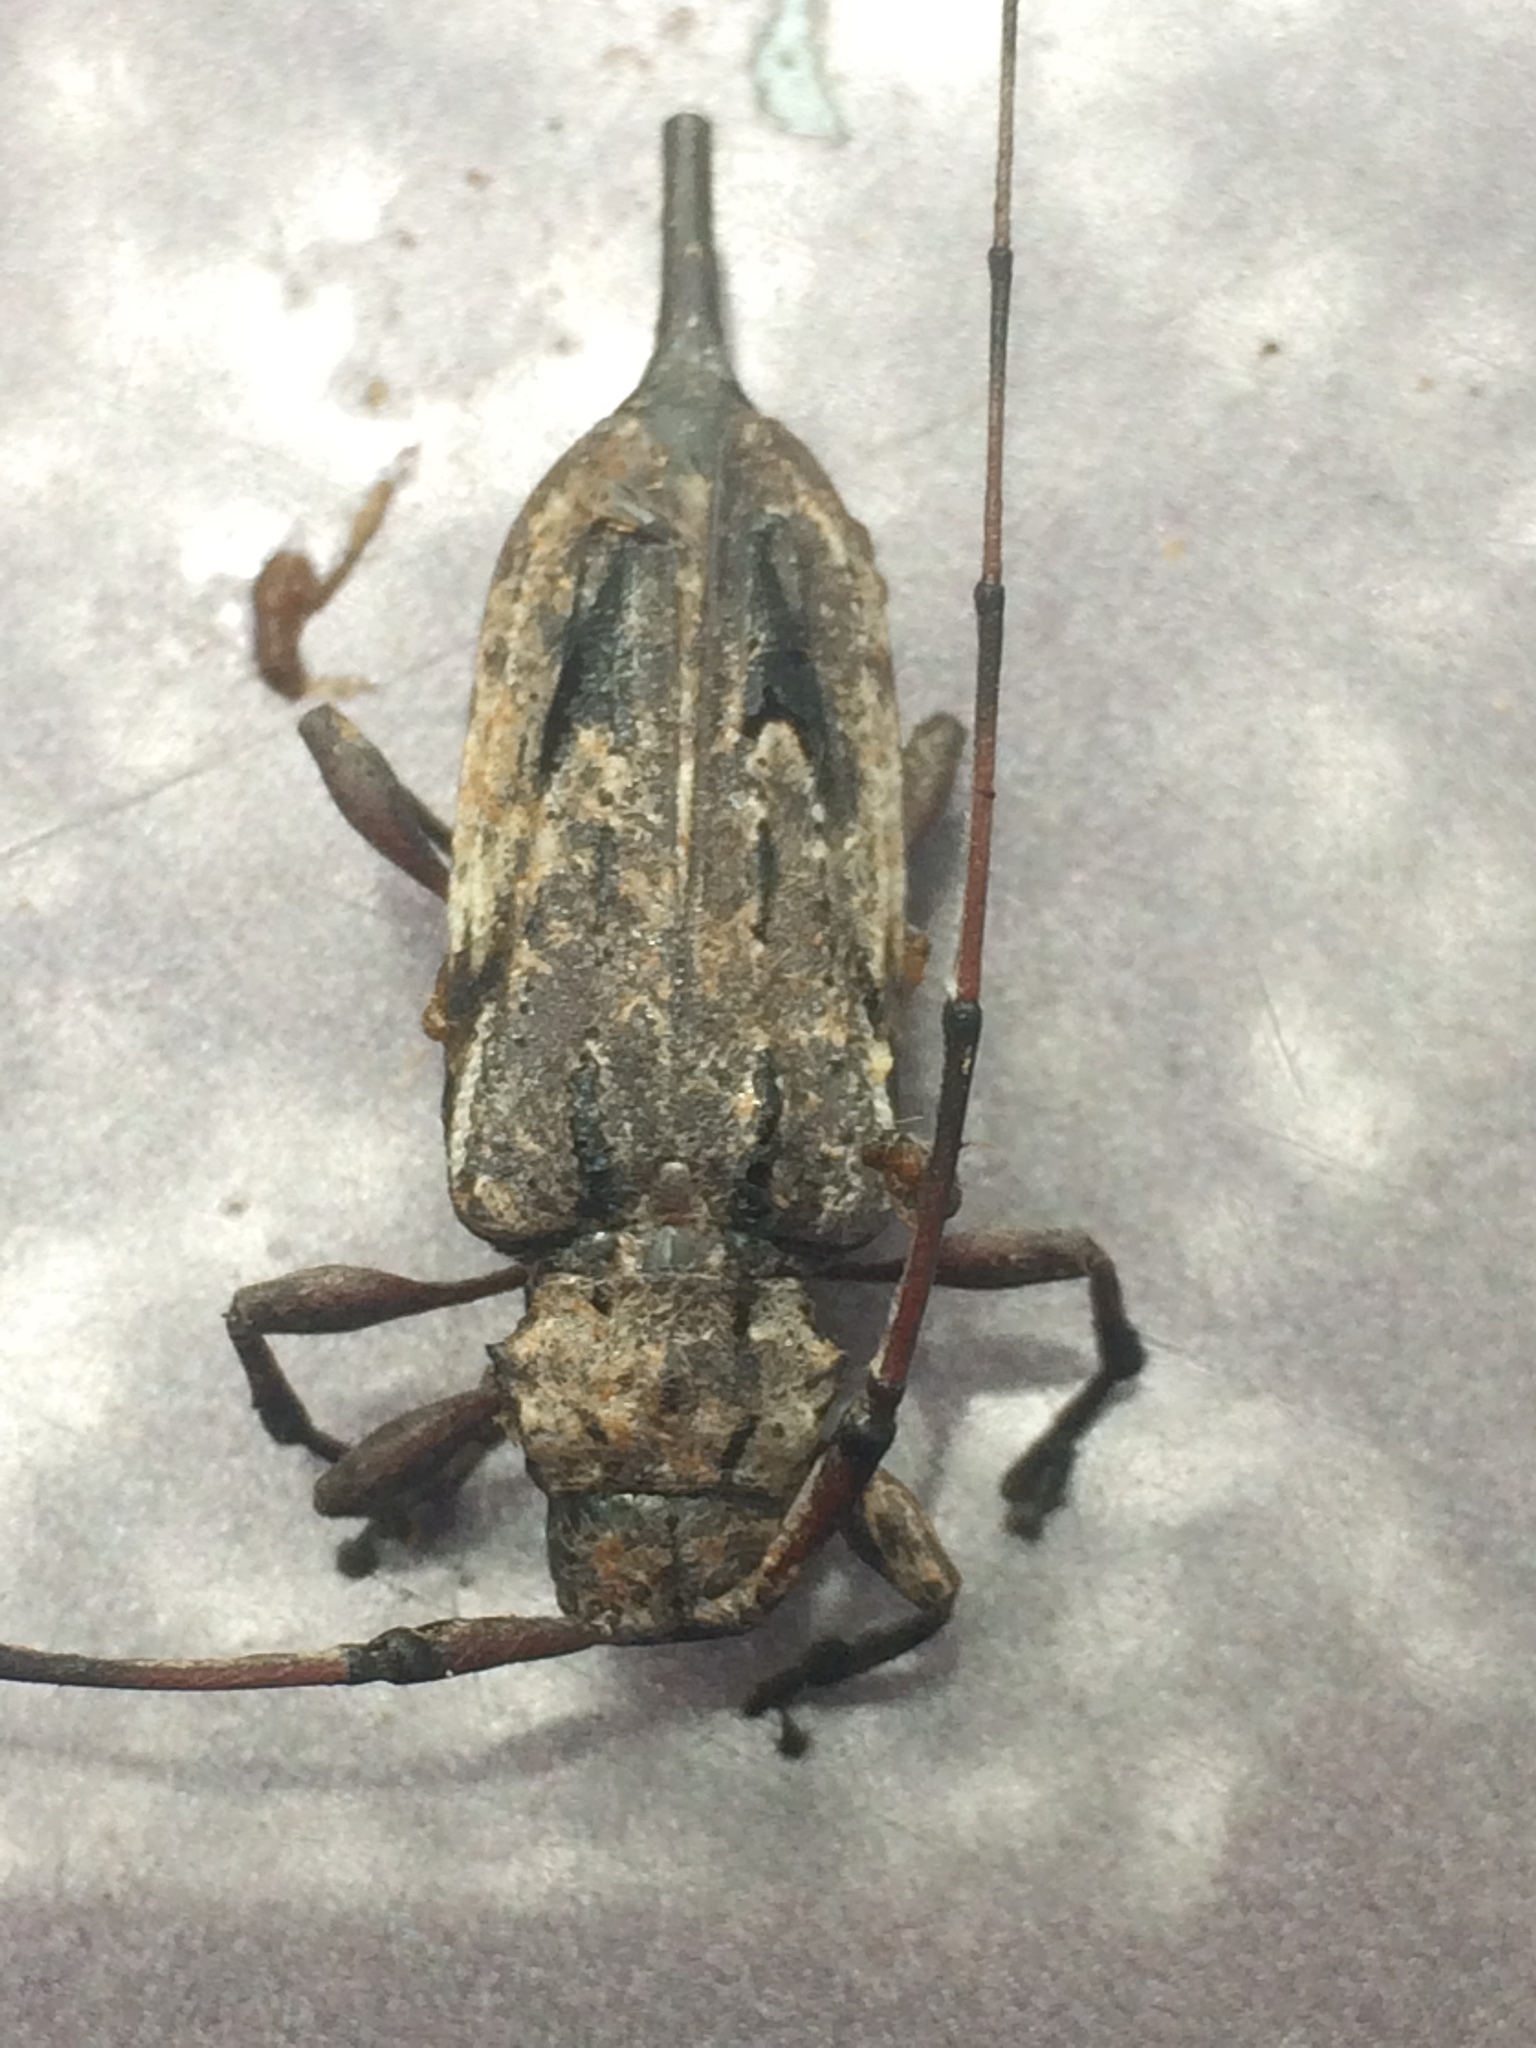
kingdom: Animalia
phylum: Arthropoda
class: Insecta
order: Coleoptera
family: Cerambycidae
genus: Acanthocinus
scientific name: Acanthocinus nodosus
